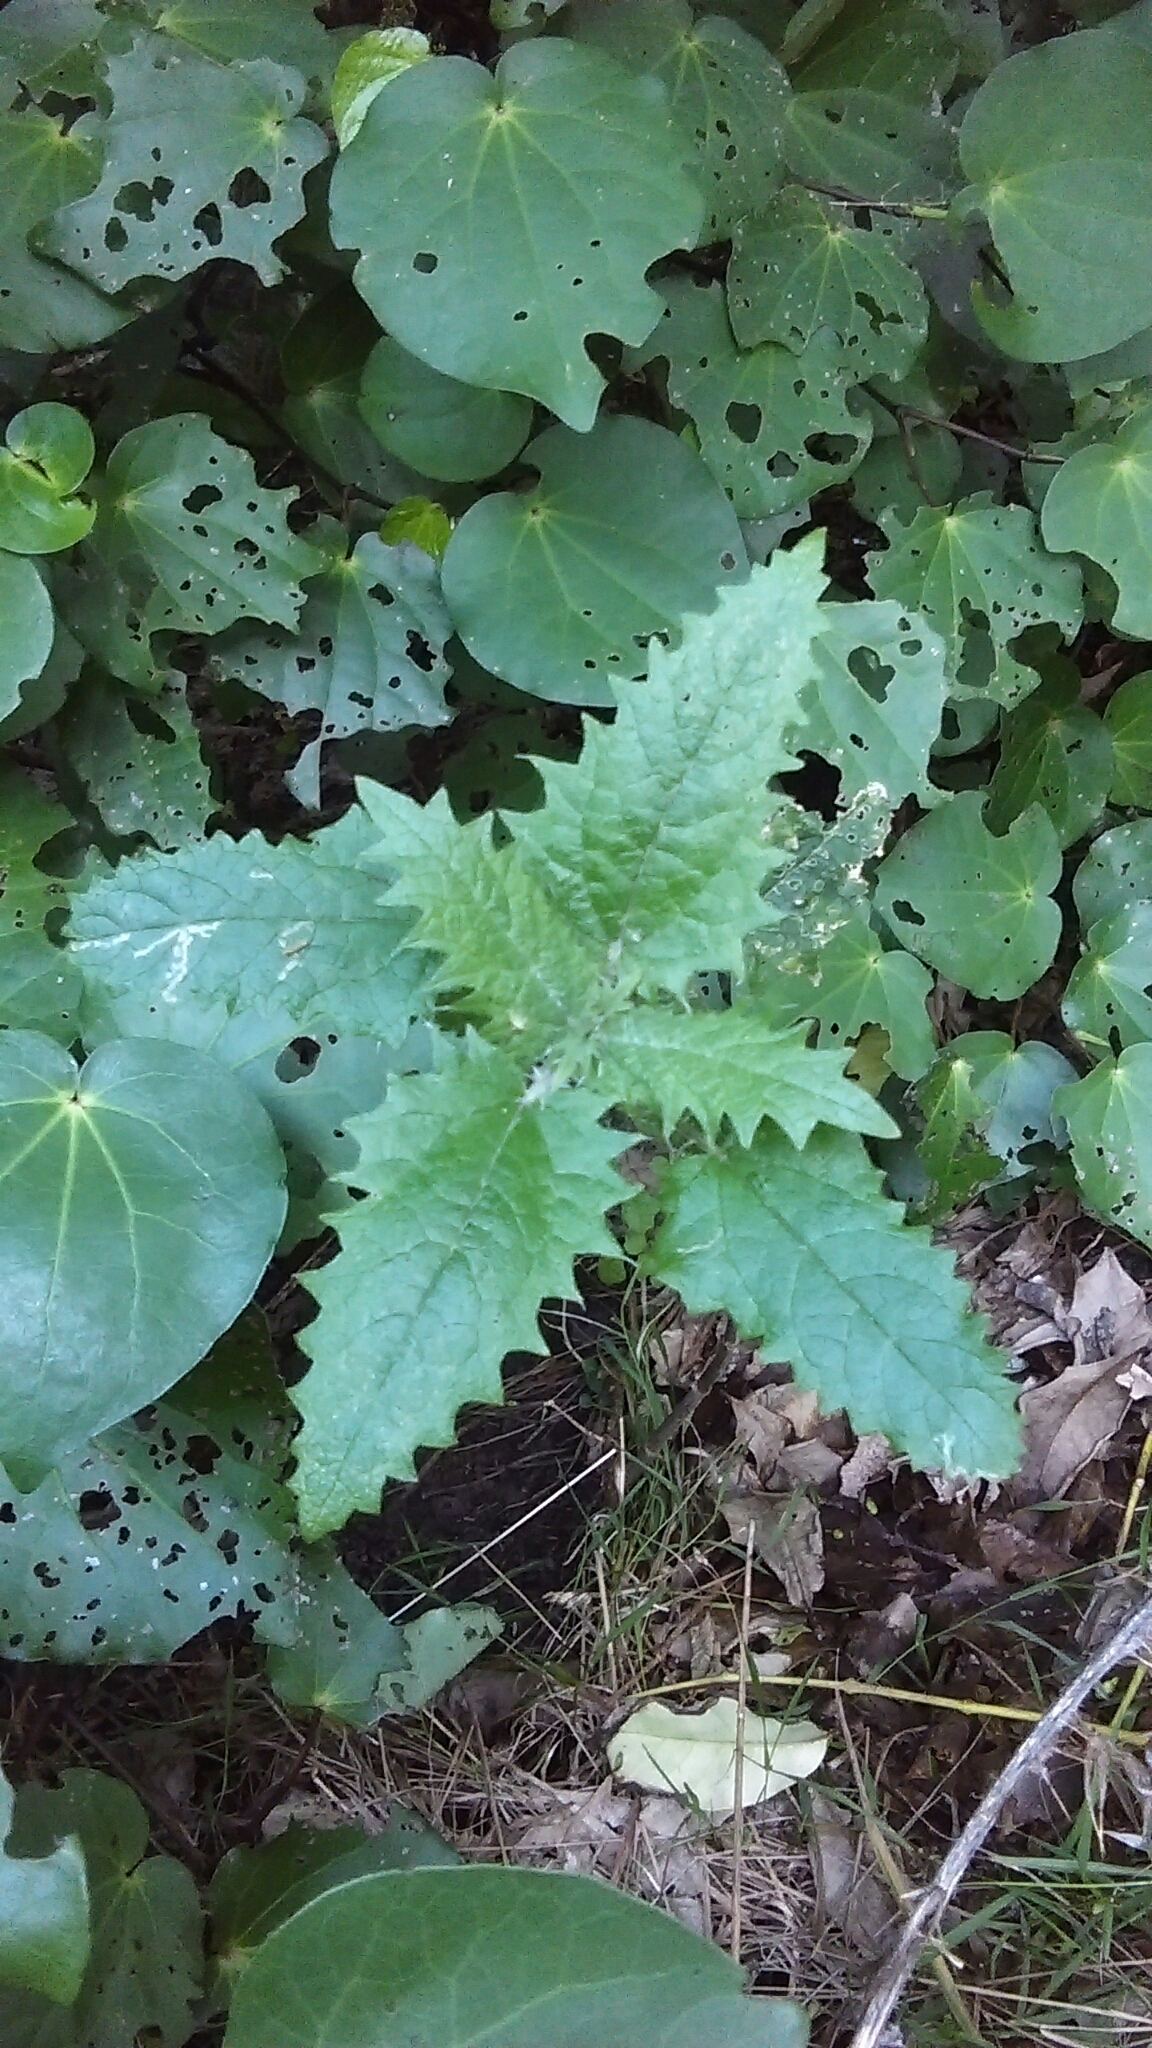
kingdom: Plantae
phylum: Tracheophyta
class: Magnoliopsida
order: Rosales
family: Urticaceae
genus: Urtica
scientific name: Urtica ferox
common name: Tree nettle
